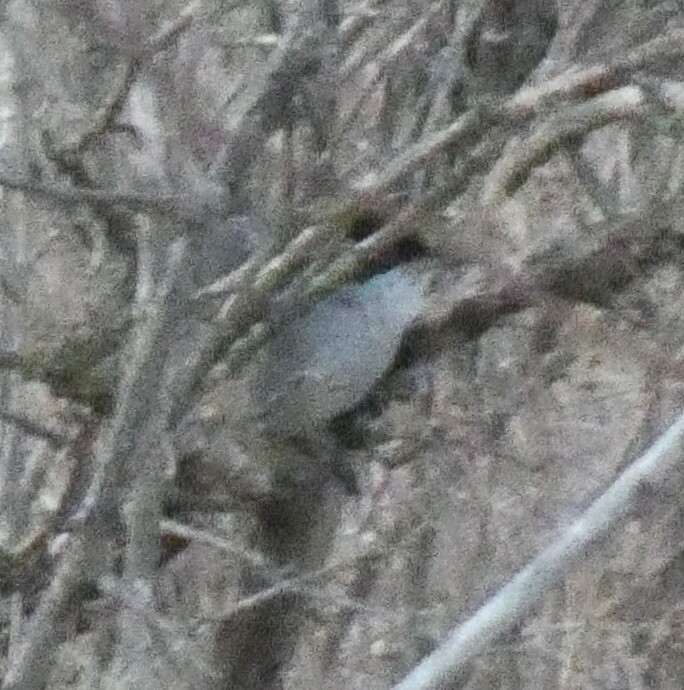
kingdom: Animalia
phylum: Chordata
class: Aves
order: Passeriformes
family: Sylviidae
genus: Curruca
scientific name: Curruca melanocephala
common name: Sardinian warbler
